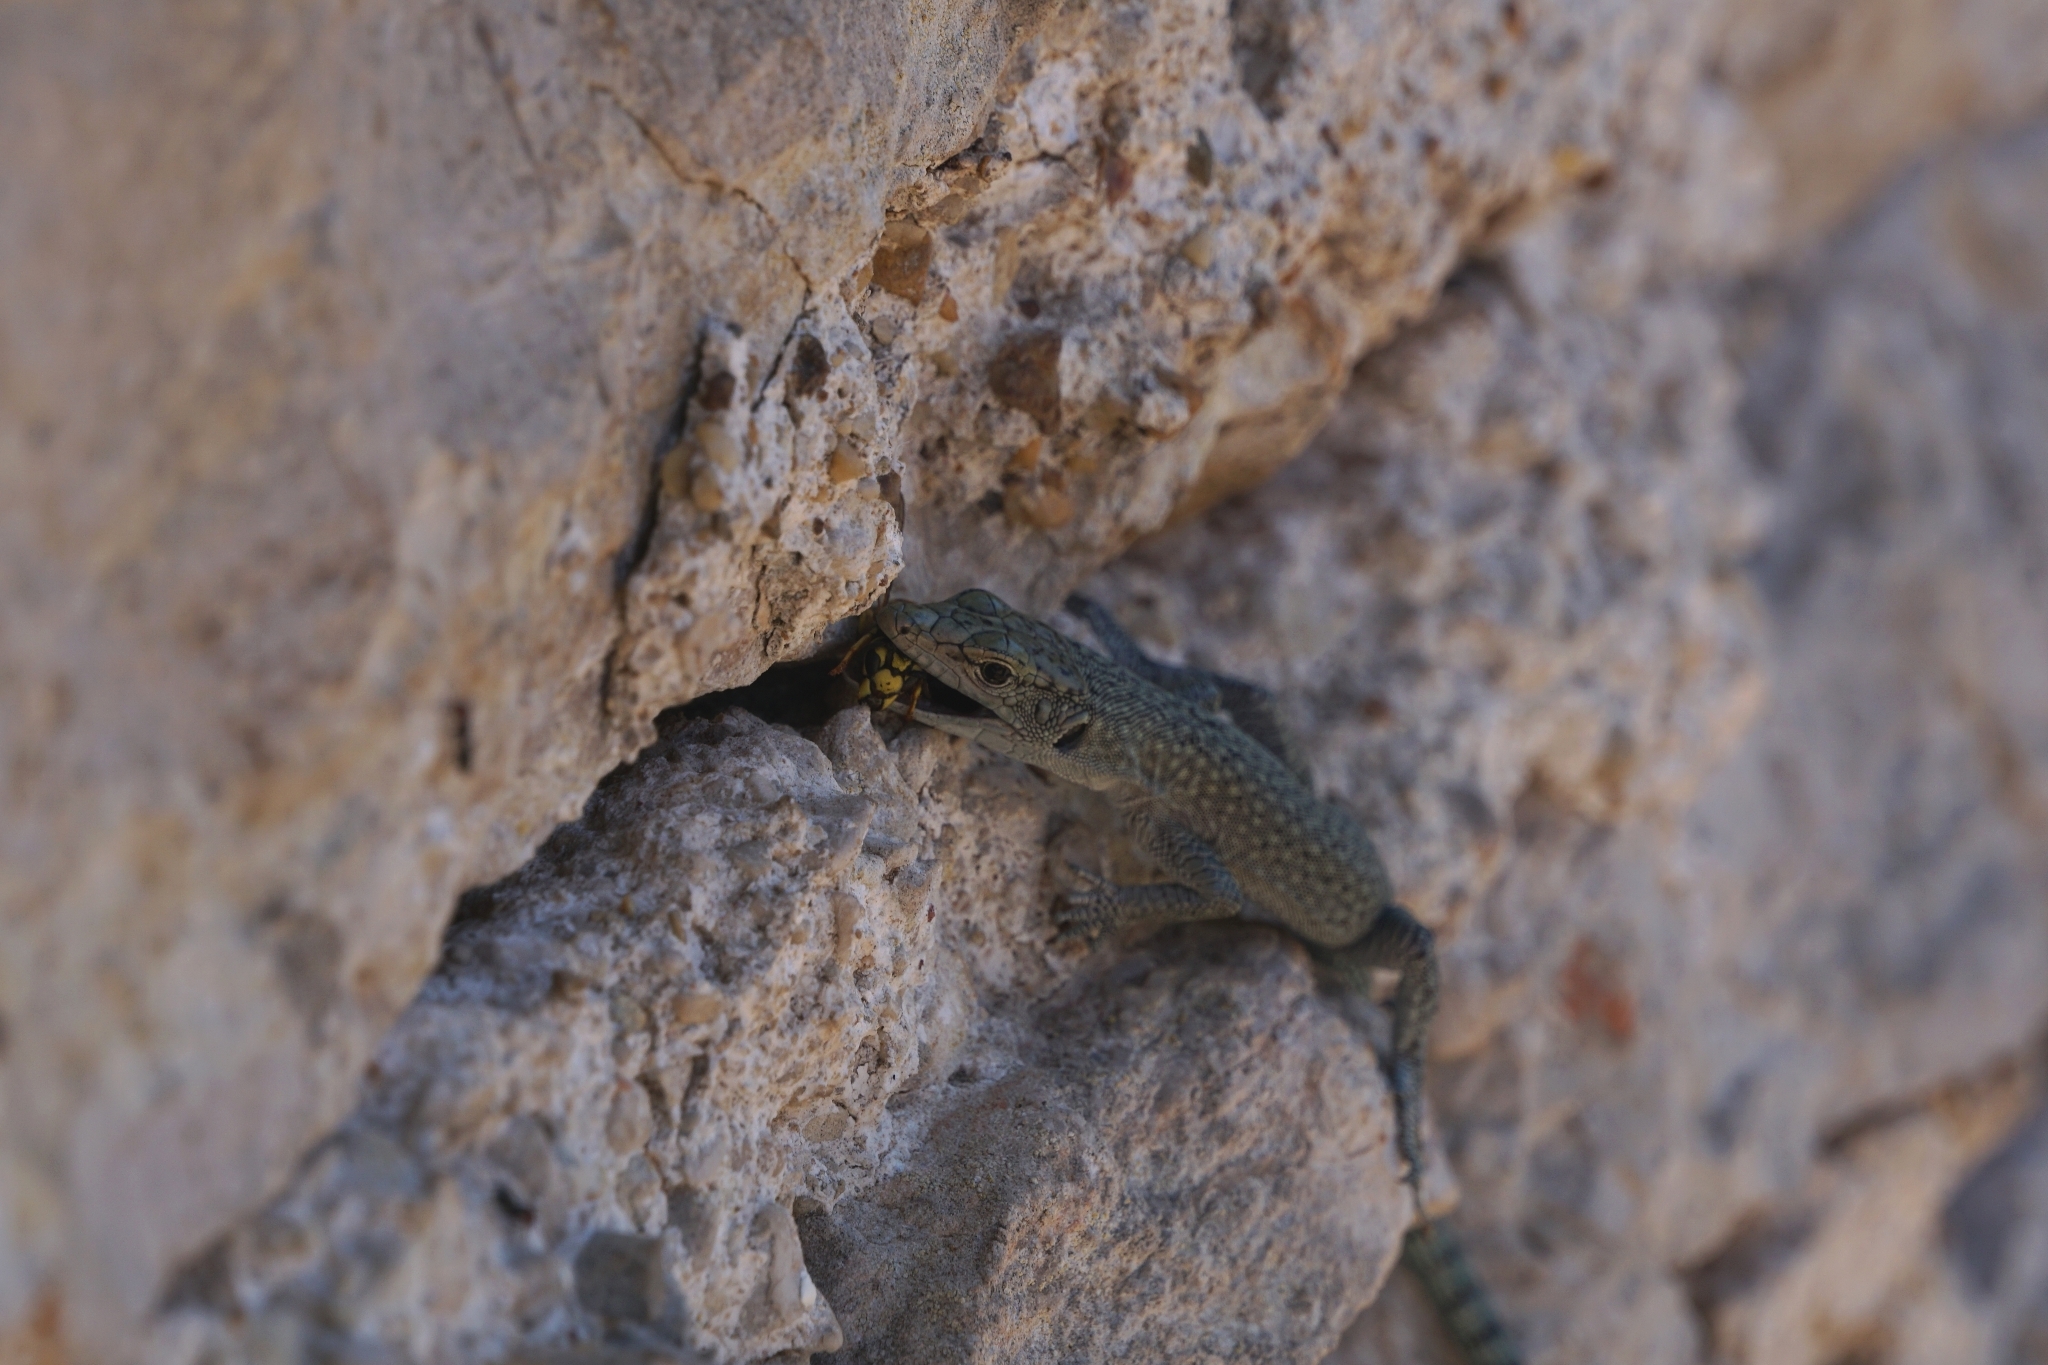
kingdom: Animalia
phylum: Chordata
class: Squamata
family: Lacertidae
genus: Dalmatolacerta
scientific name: Dalmatolacerta oxycephala
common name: Sharp-snouted rock lizard
